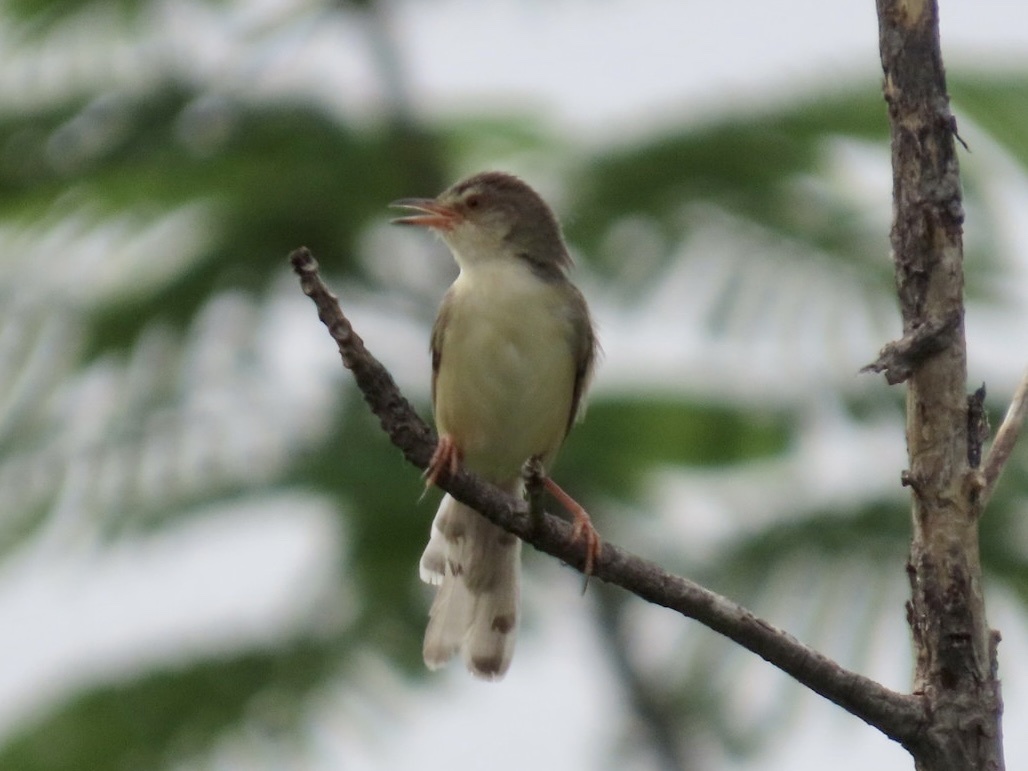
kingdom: Animalia
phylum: Chordata
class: Aves
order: Passeriformes
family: Cisticolidae
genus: Prinia
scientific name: Prinia inornata
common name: Plain prinia
